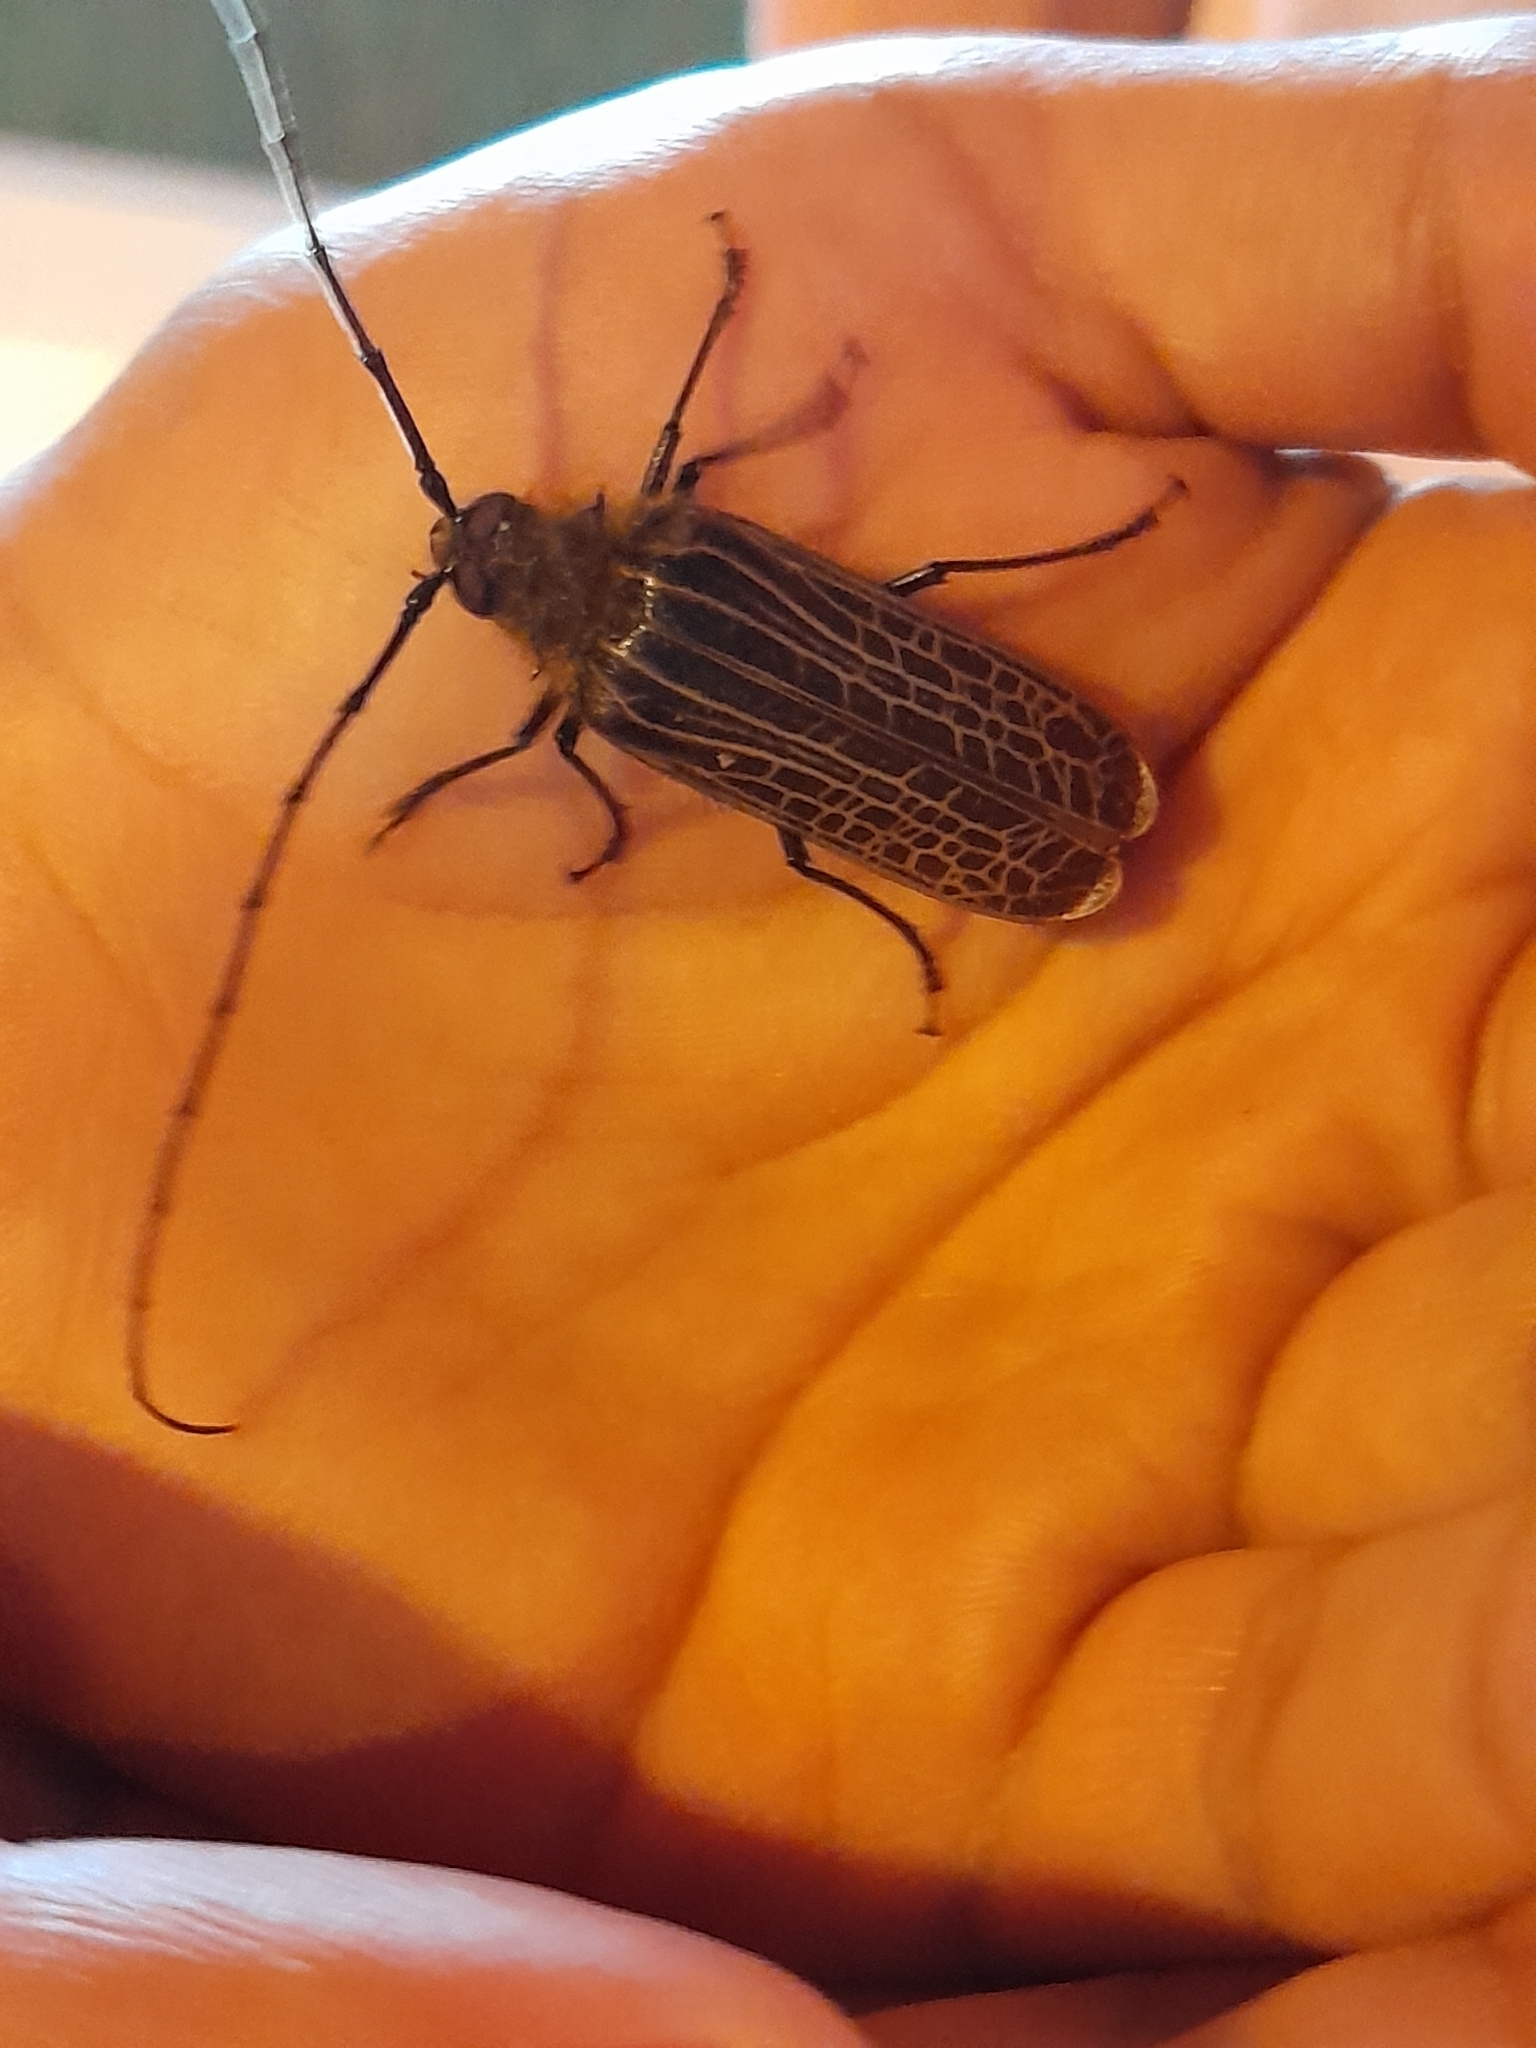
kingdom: Animalia
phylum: Arthropoda
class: Insecta
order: Coleoptera
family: Cerambycidae
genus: Prionoplus
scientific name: Prionoplus reticularis
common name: Huhu beetle
